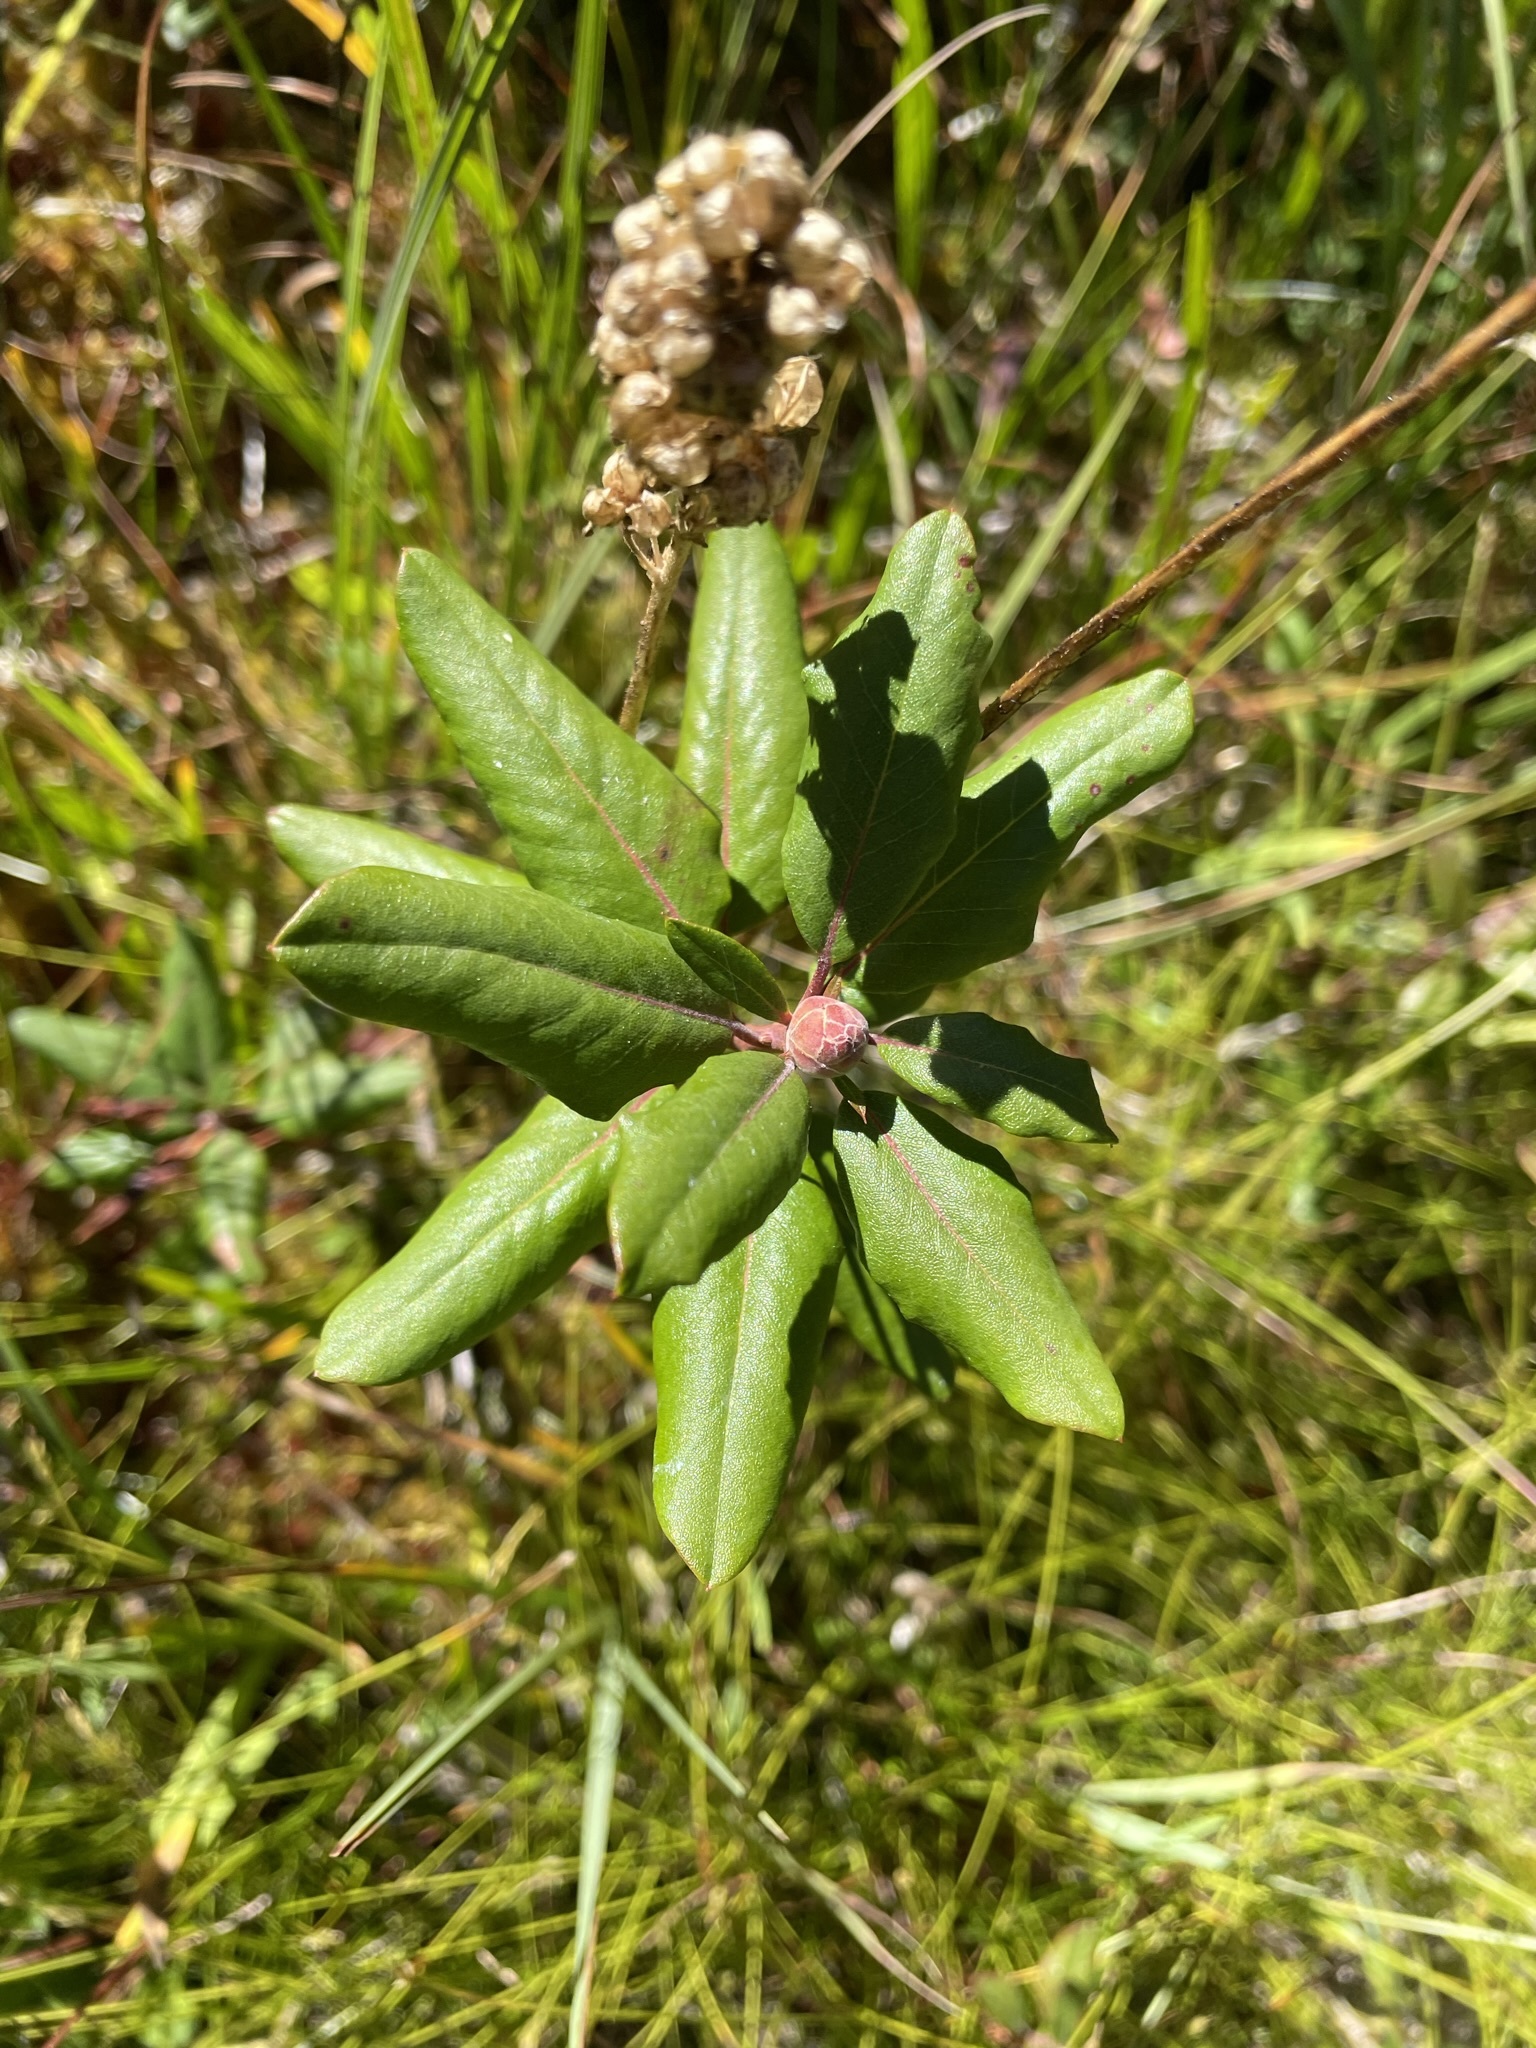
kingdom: Plantae
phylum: Tracheophyta
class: Magnoliopsida
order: Ericales
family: Ericaceae
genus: Rhododendron
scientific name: Rhododendron columbianum
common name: Western labrador tea
